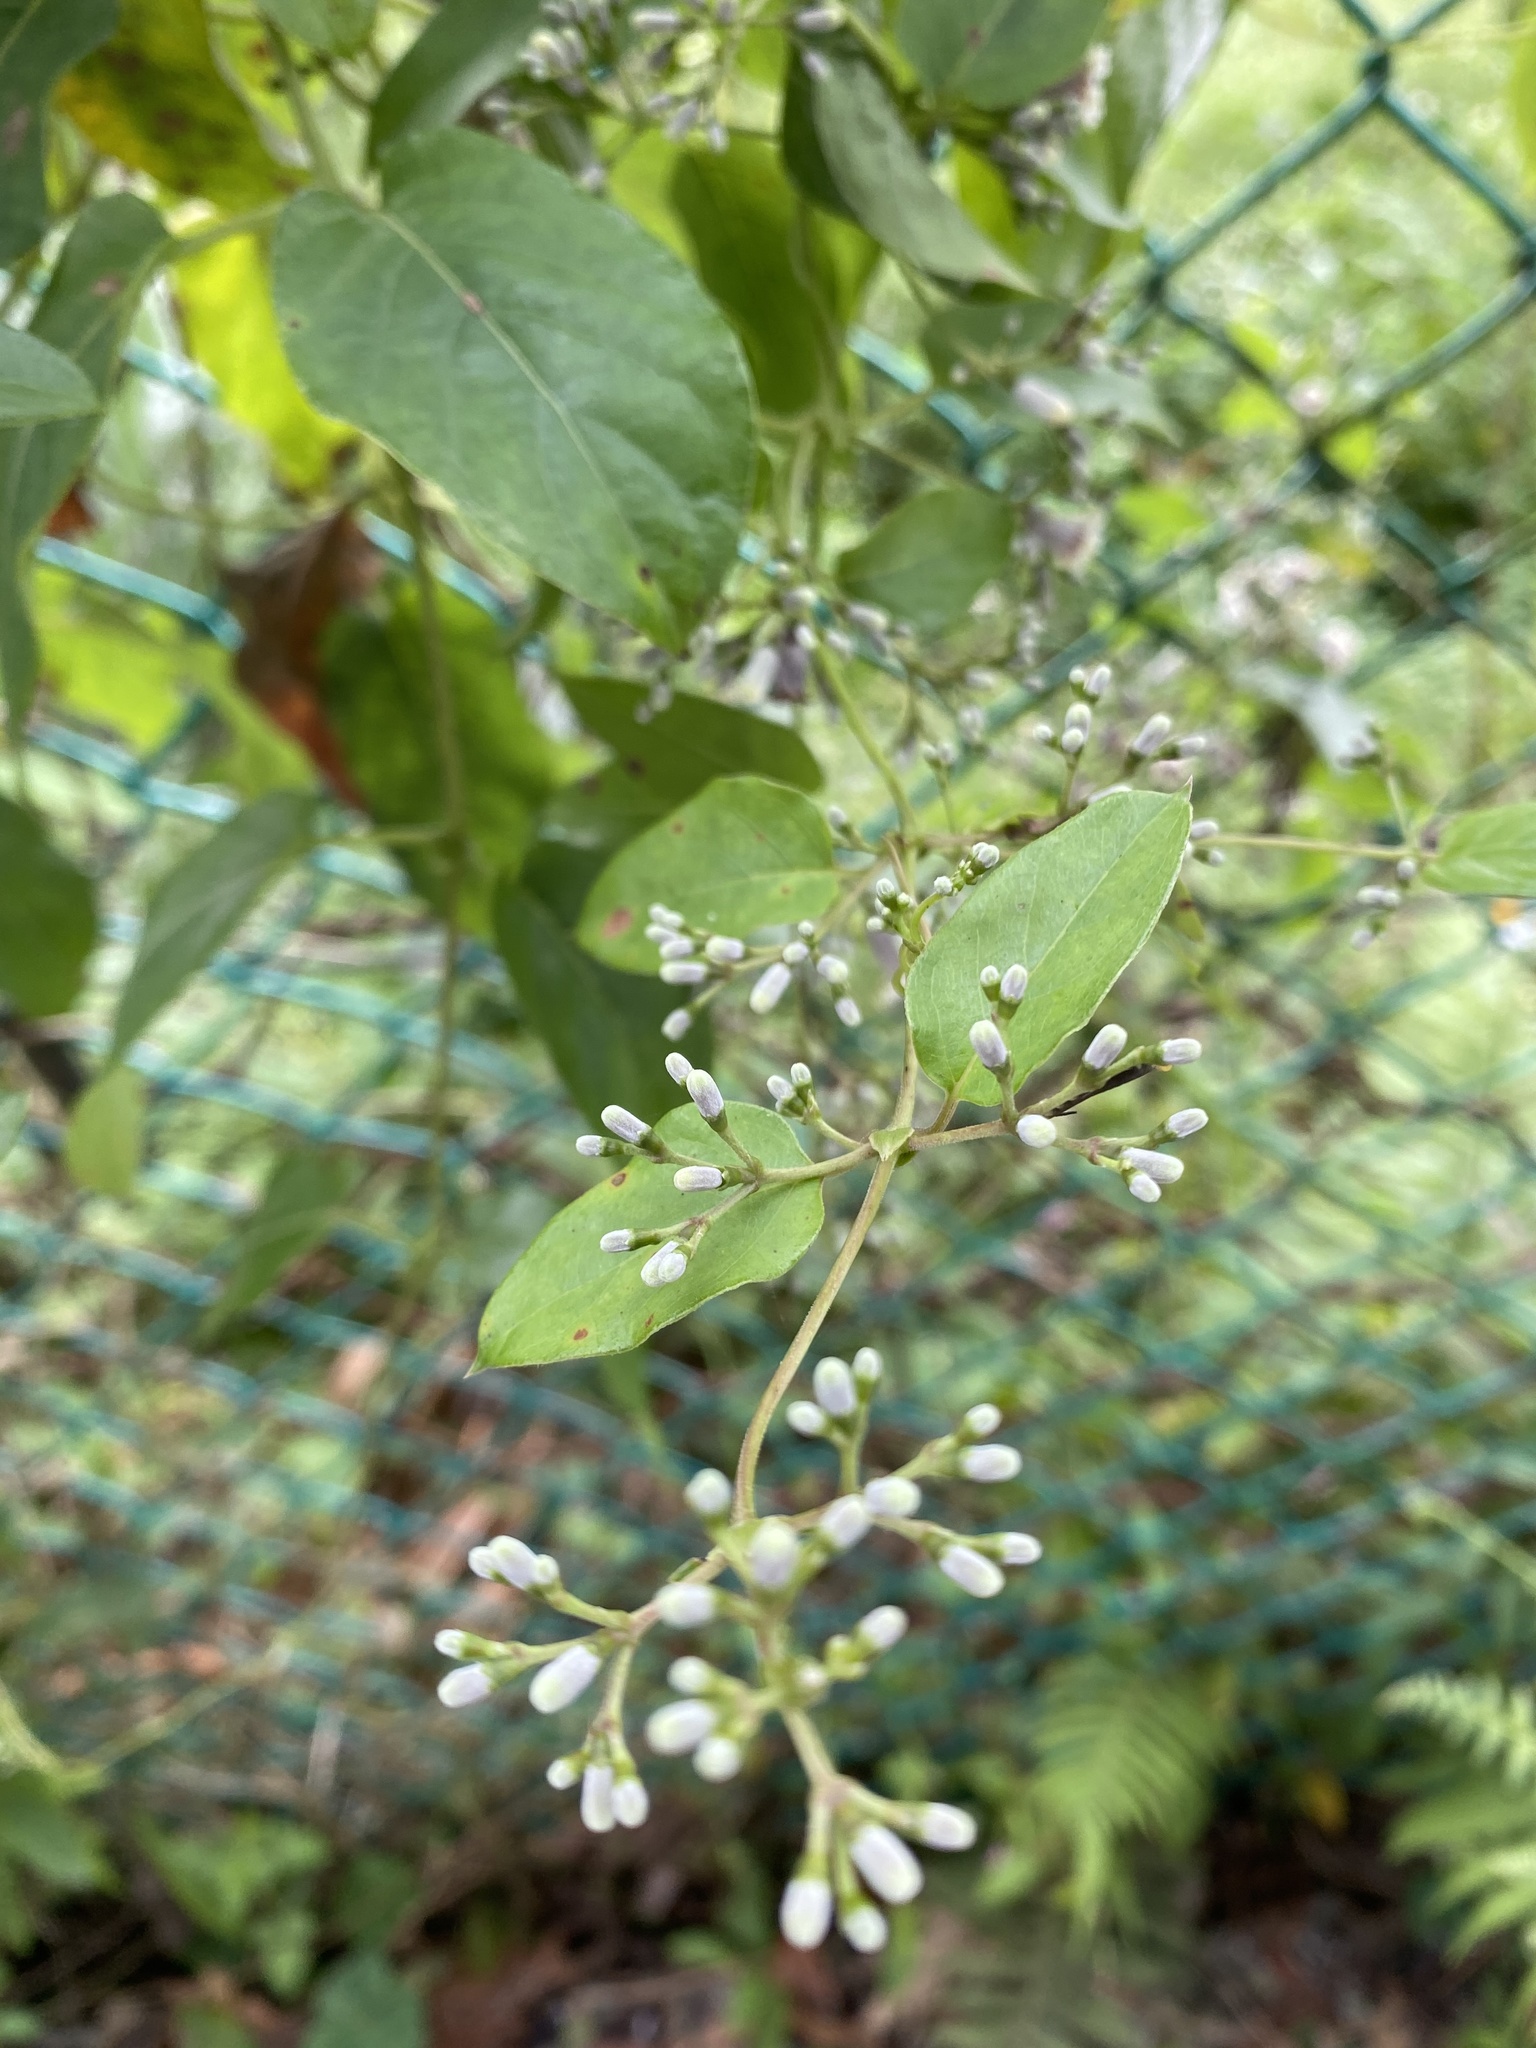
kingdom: Plantae
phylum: Tracheophyta
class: Magnoliopsida
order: Gentianales
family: Rubiaceae
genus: Paederia
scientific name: Paederia foetida
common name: Stinkvine
